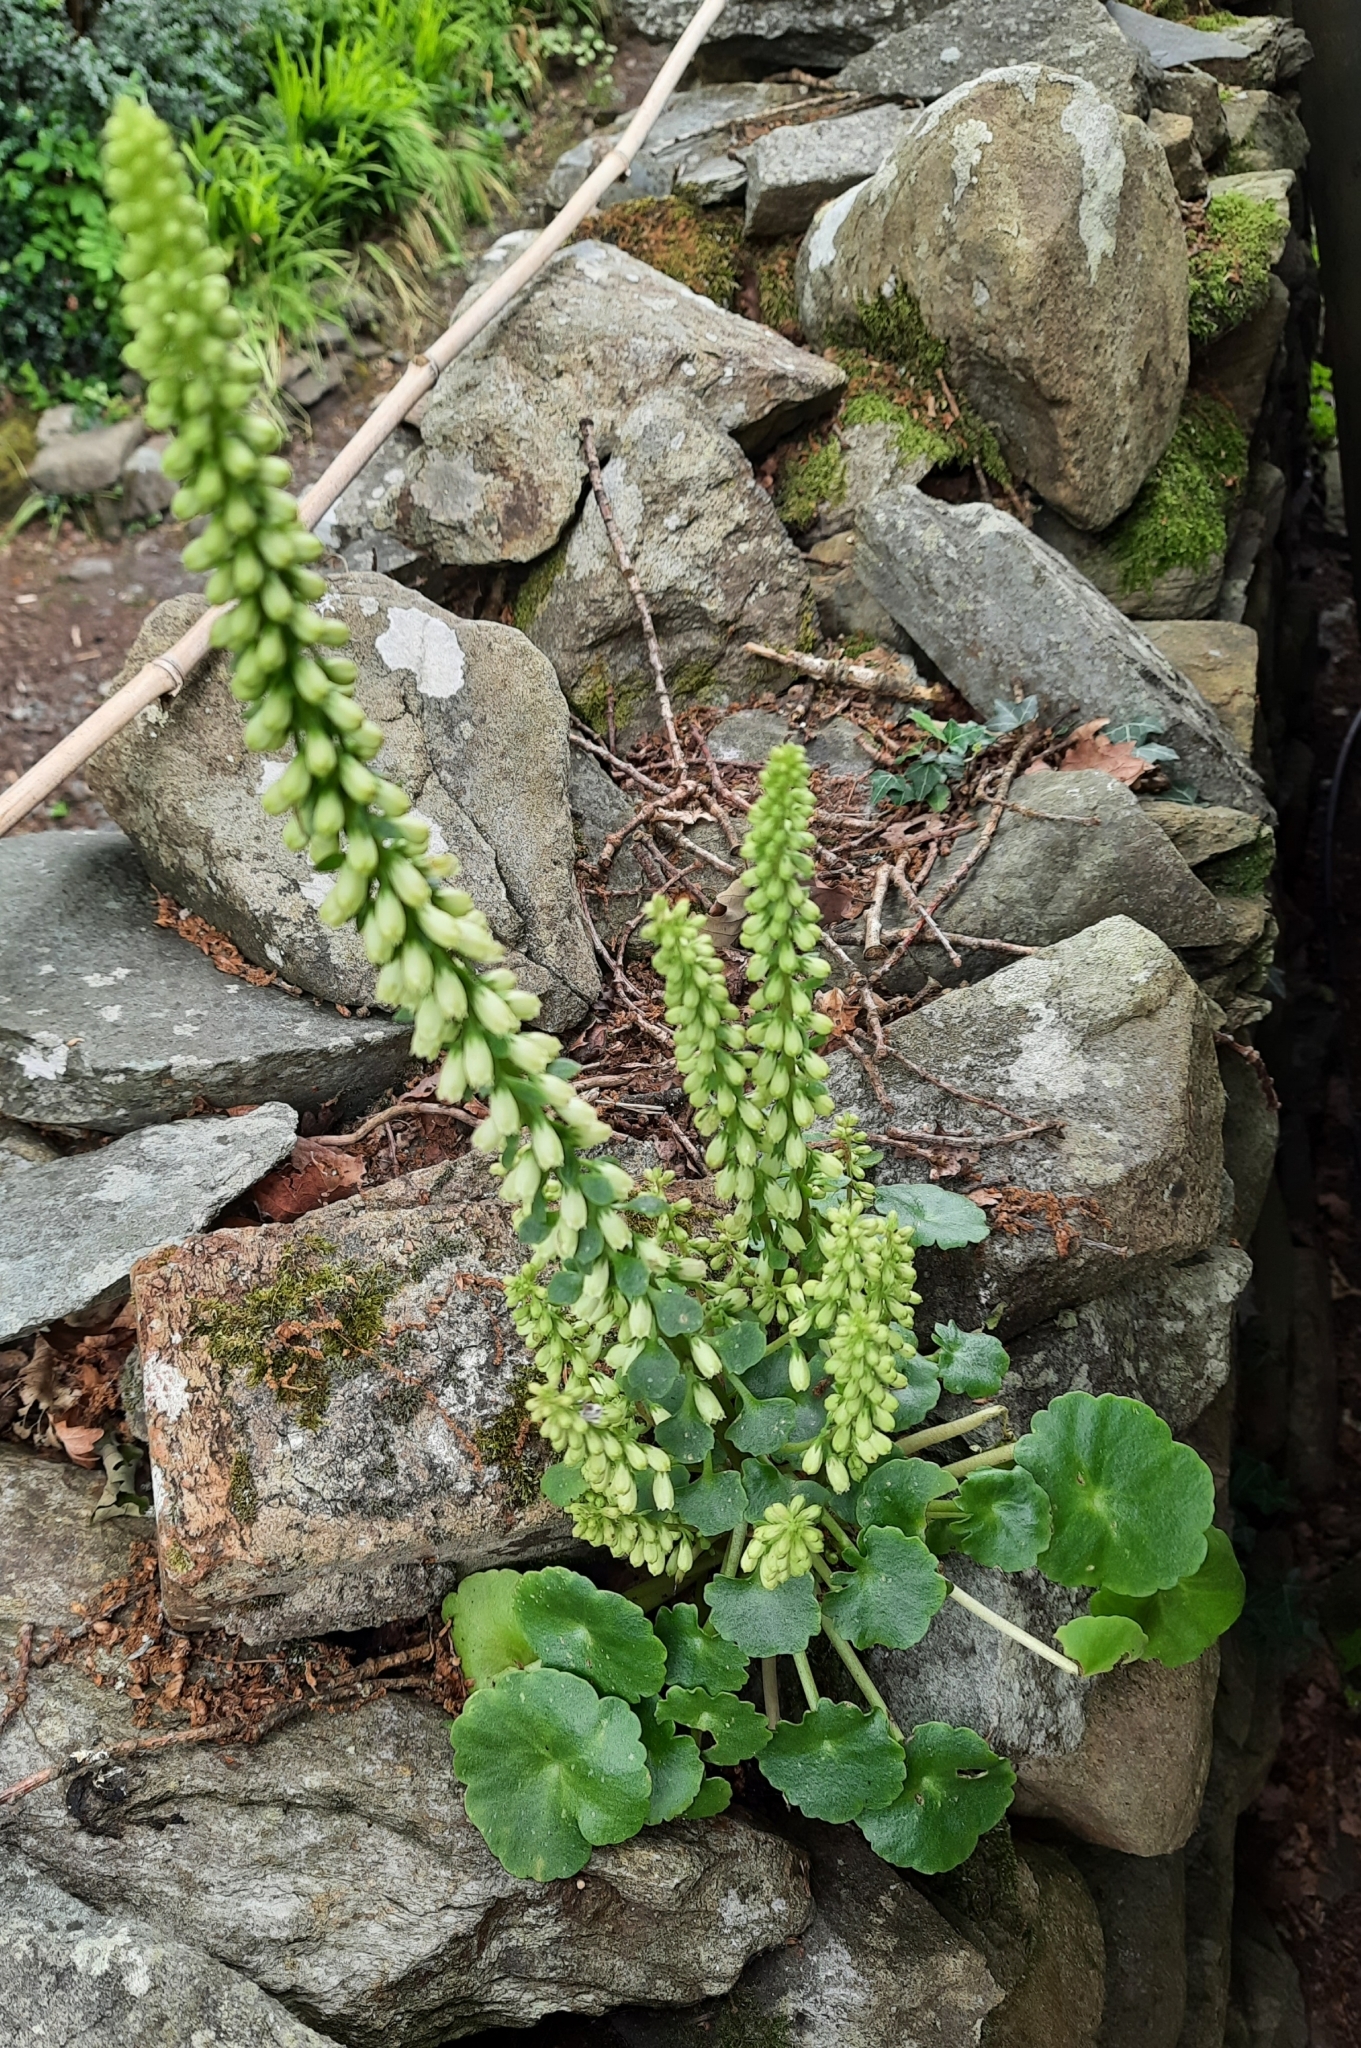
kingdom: Plantae
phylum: Tracheophyta
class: Magnoliopsida
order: Saxifragales
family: Crassulaceae
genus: Umbilicus
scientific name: Umbilicus rupestris
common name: Navelwort
